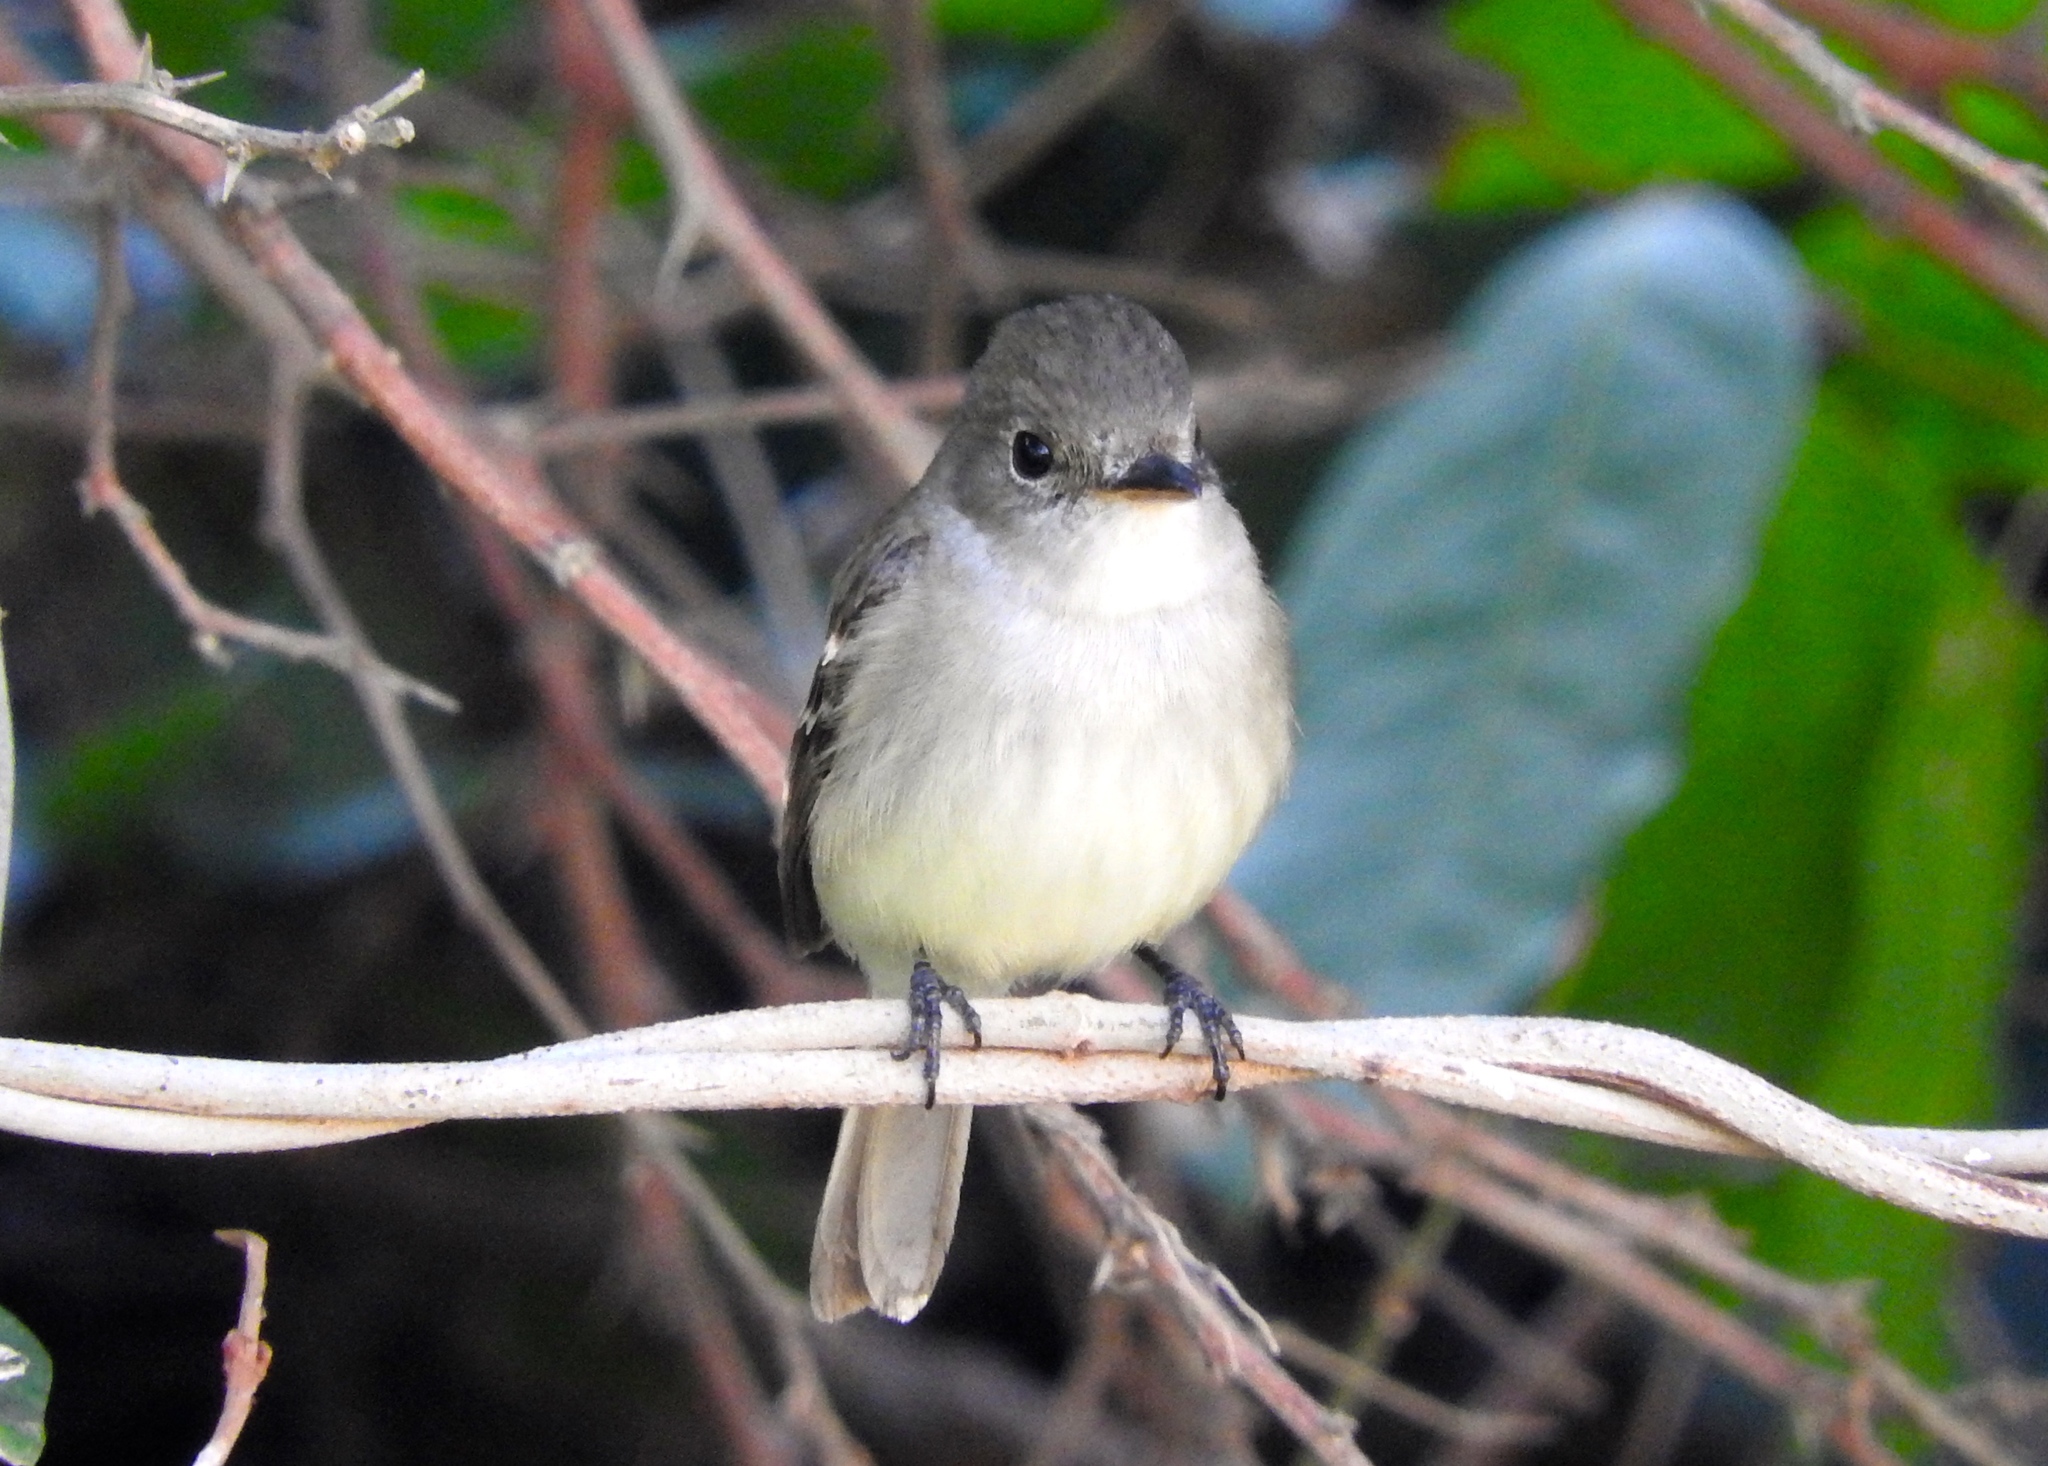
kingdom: Animalia
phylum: Chordata
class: Aves
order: Passeriformes
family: Tyrannidae
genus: Empidonax
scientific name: Empidonax
